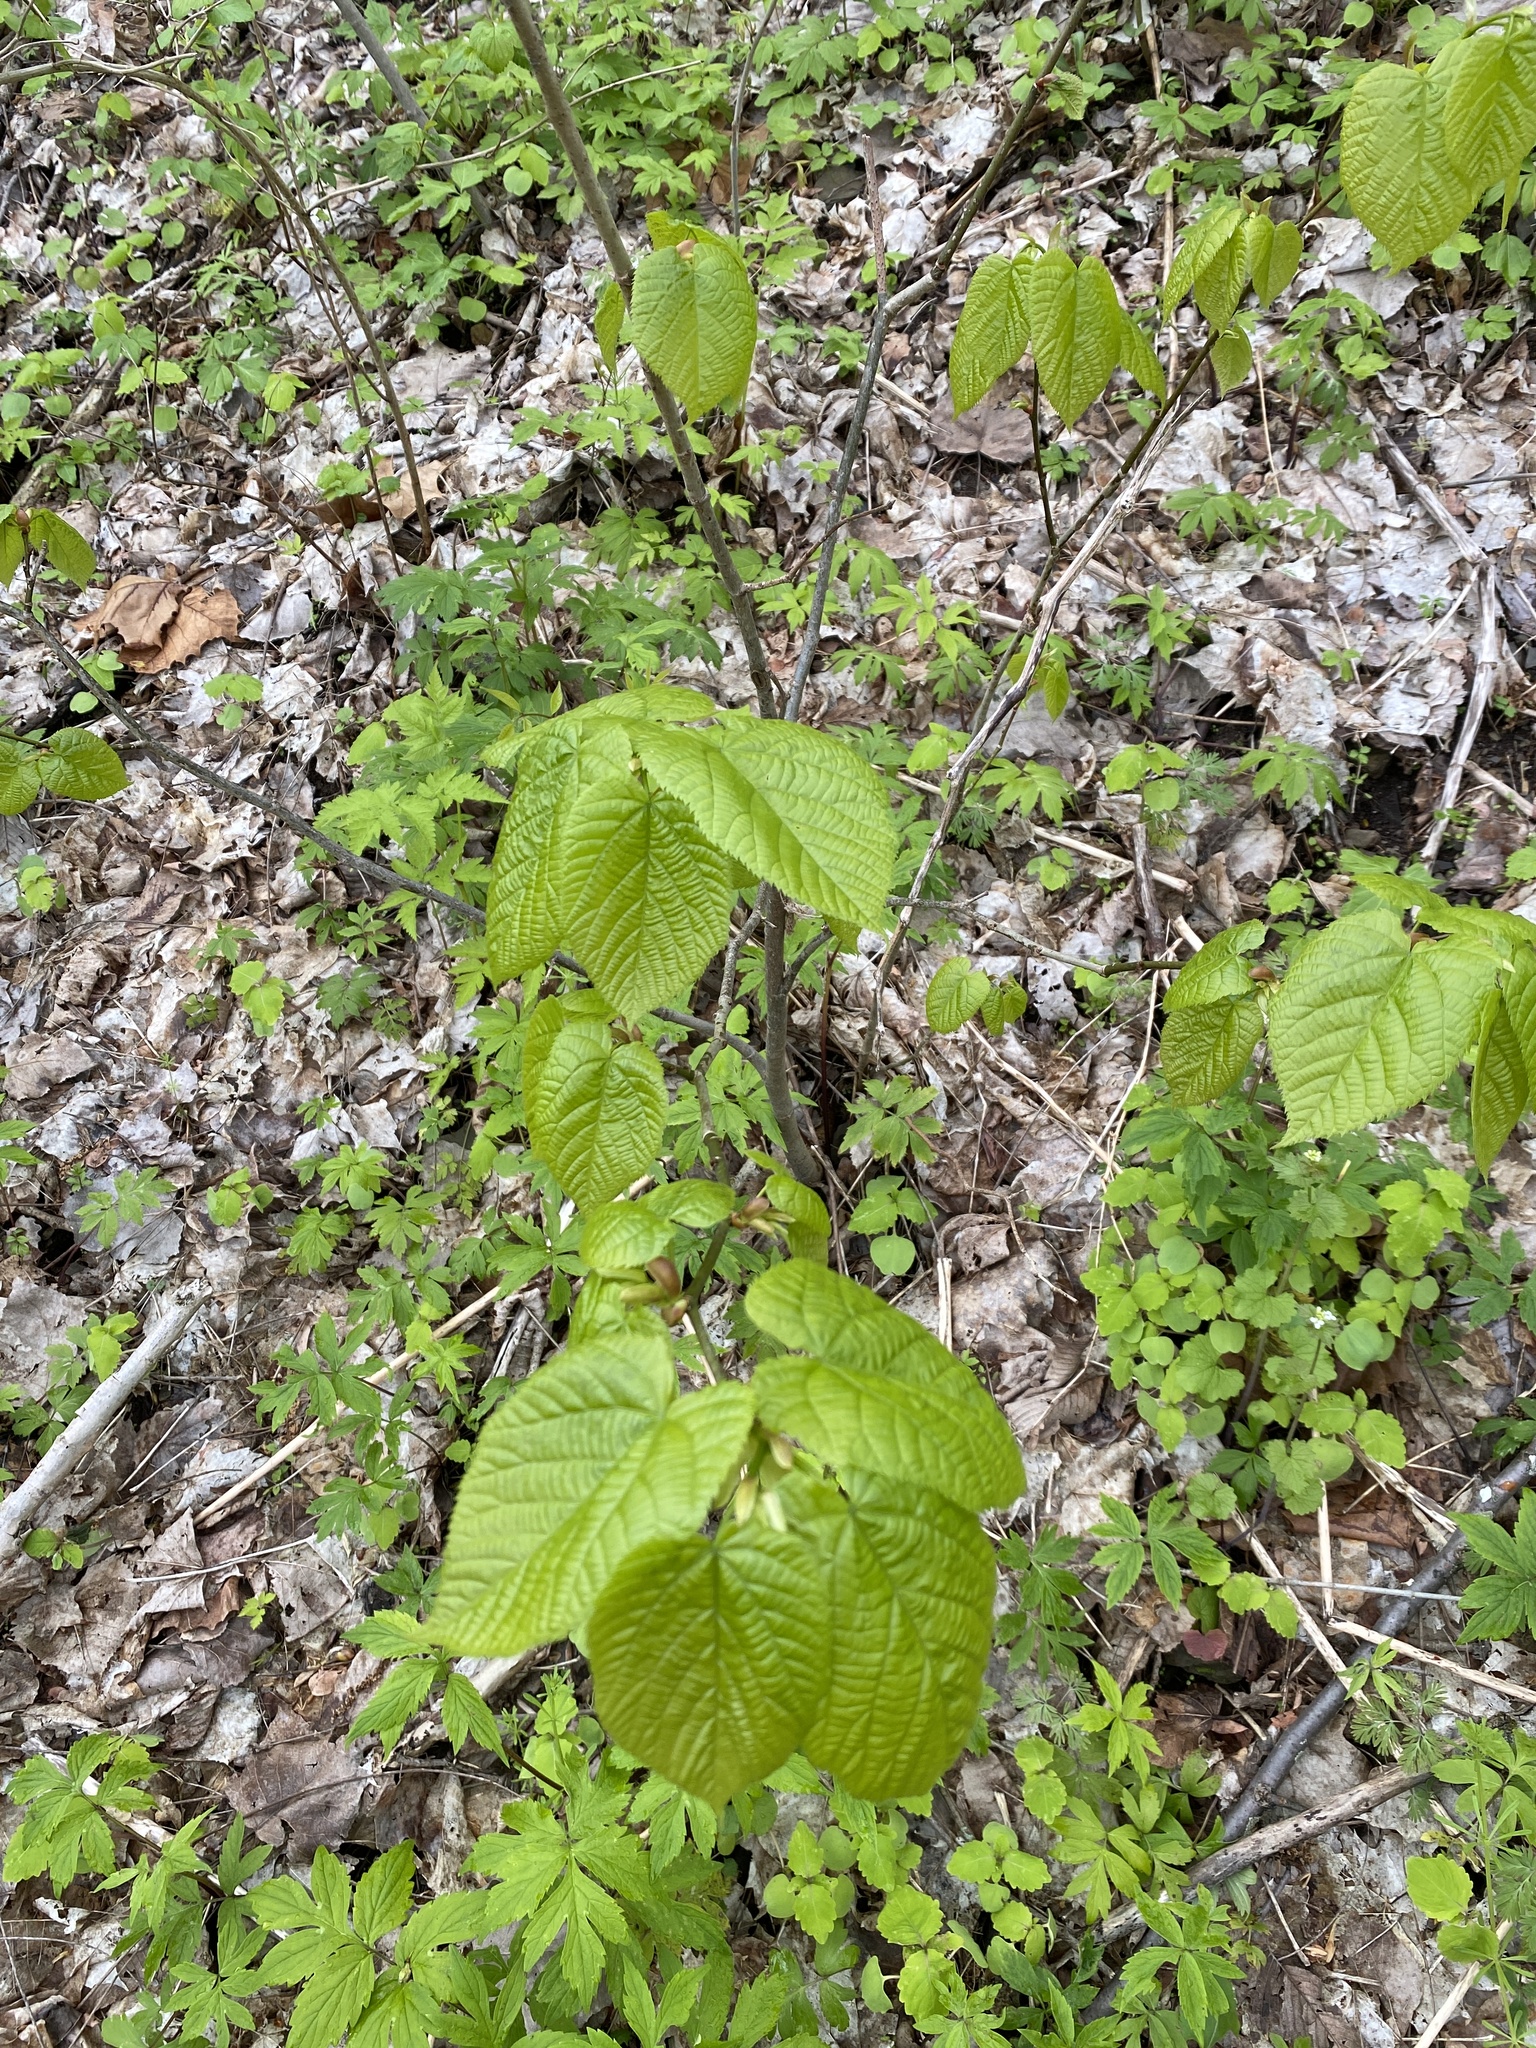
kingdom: Plantae
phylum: Tracheophyta
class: Magnoliopsida
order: Malvales
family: Malvaceae
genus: Tilia
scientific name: Tilia americana
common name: Basswood
